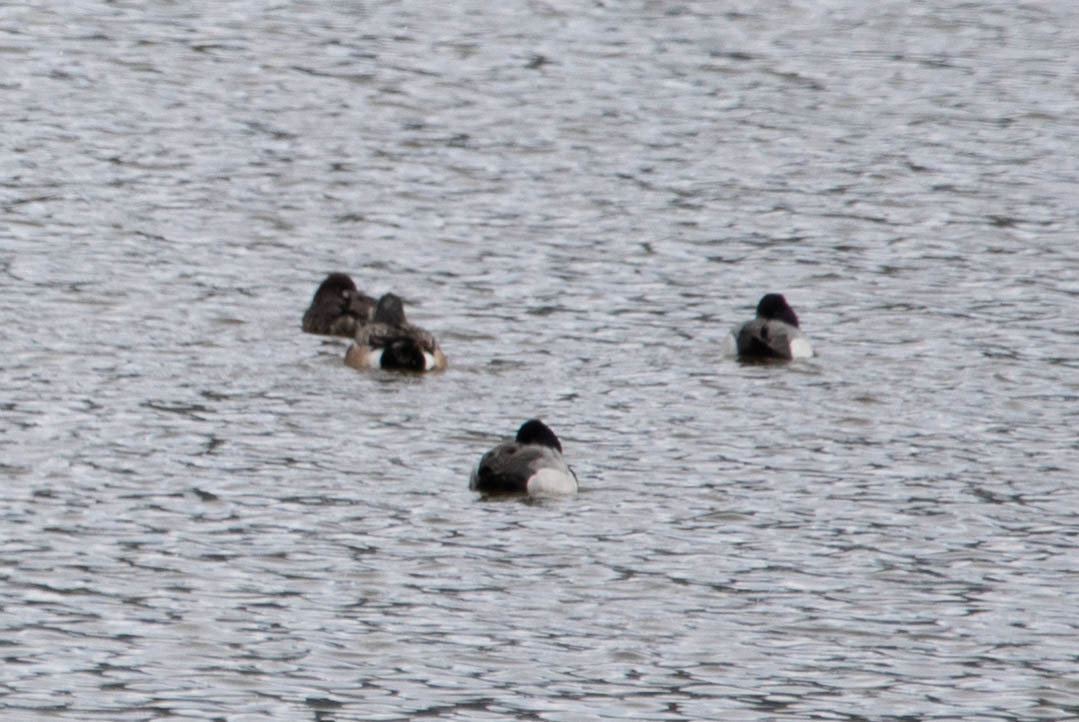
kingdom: Animalia
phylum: Chordata
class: Aves
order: Anseriformes
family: Anatidae
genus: Aythya
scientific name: Aythya affinis
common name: Lesser scaup
